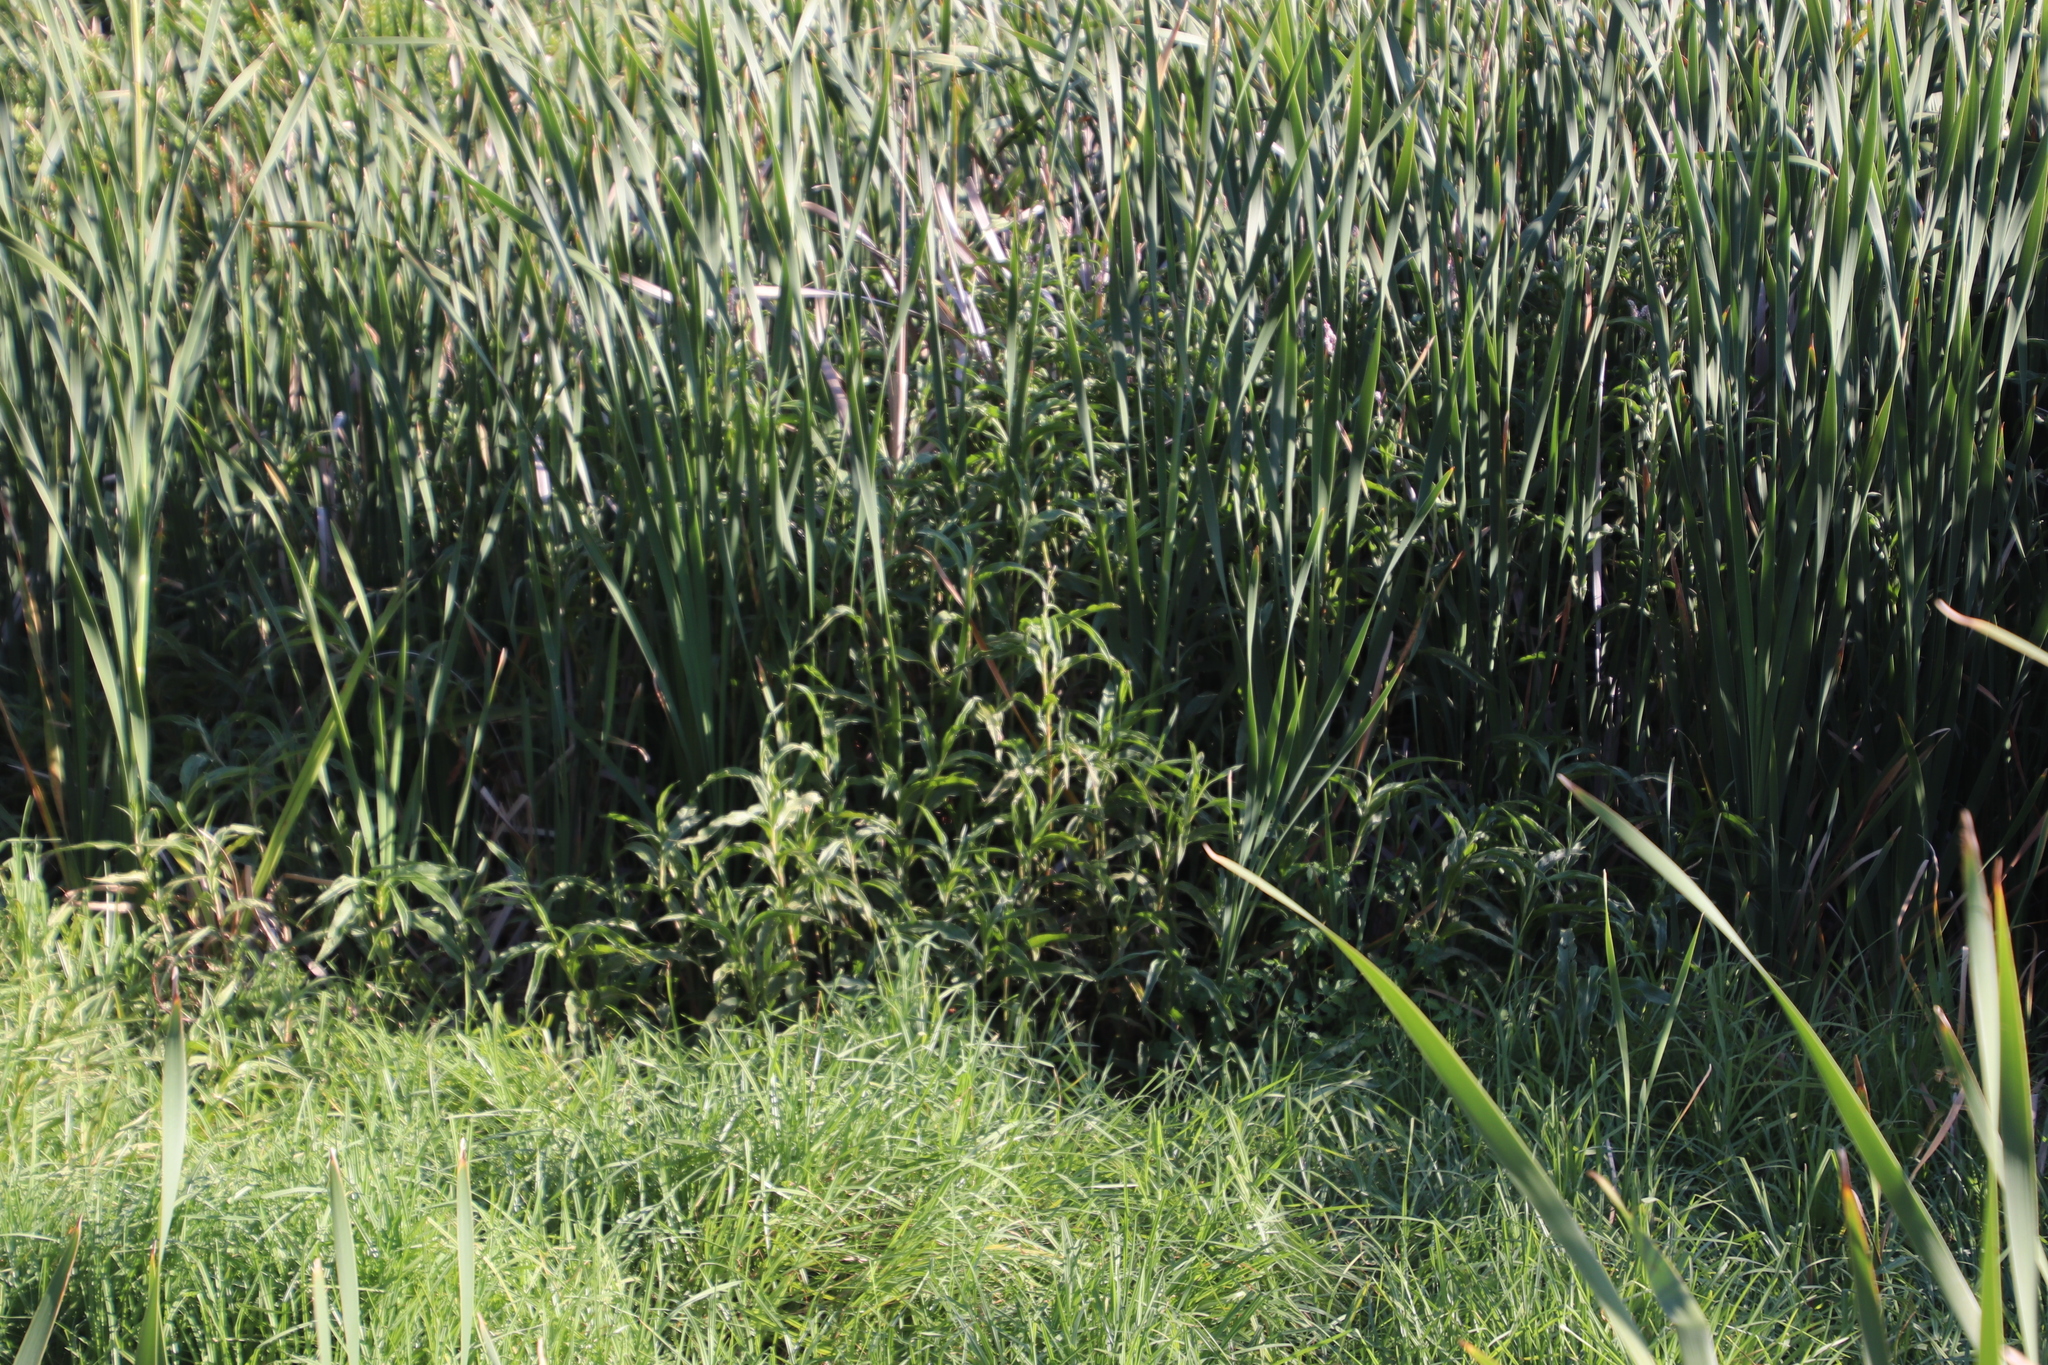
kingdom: Plantae
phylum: Tracheophyta
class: Magnoliopsida
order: Caryophyllales
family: Polygonaceae
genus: Persicaria
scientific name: Persicaria madagascariensis
